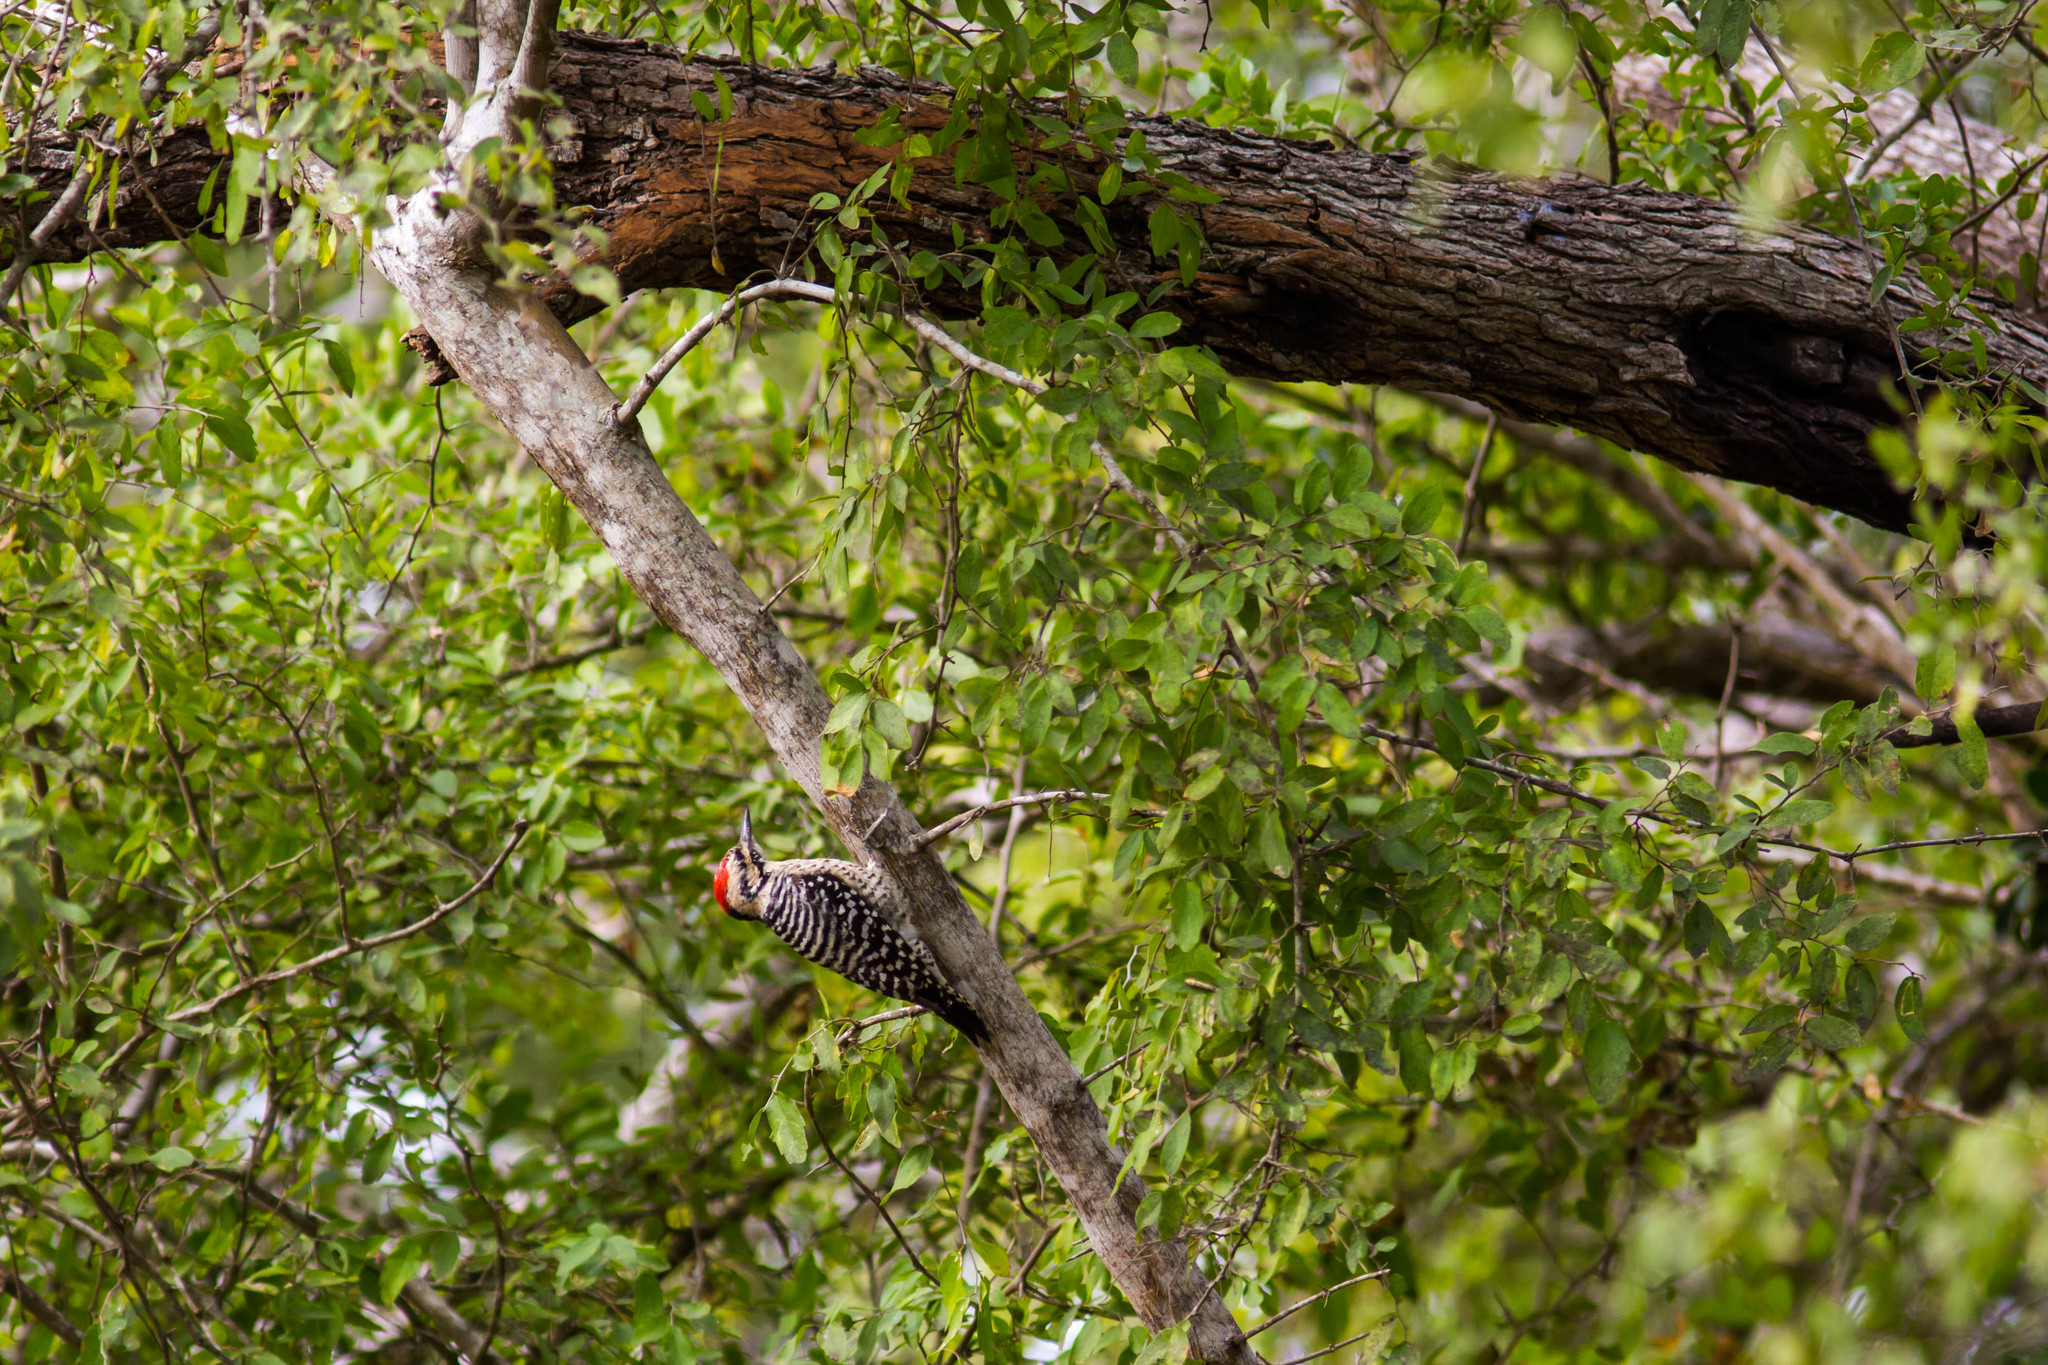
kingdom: Animalia
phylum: Chordata
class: Aves
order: Piciformes
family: Picidae
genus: Dryobates
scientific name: Dryobates scalaris
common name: Ladder-backed woodpecker
